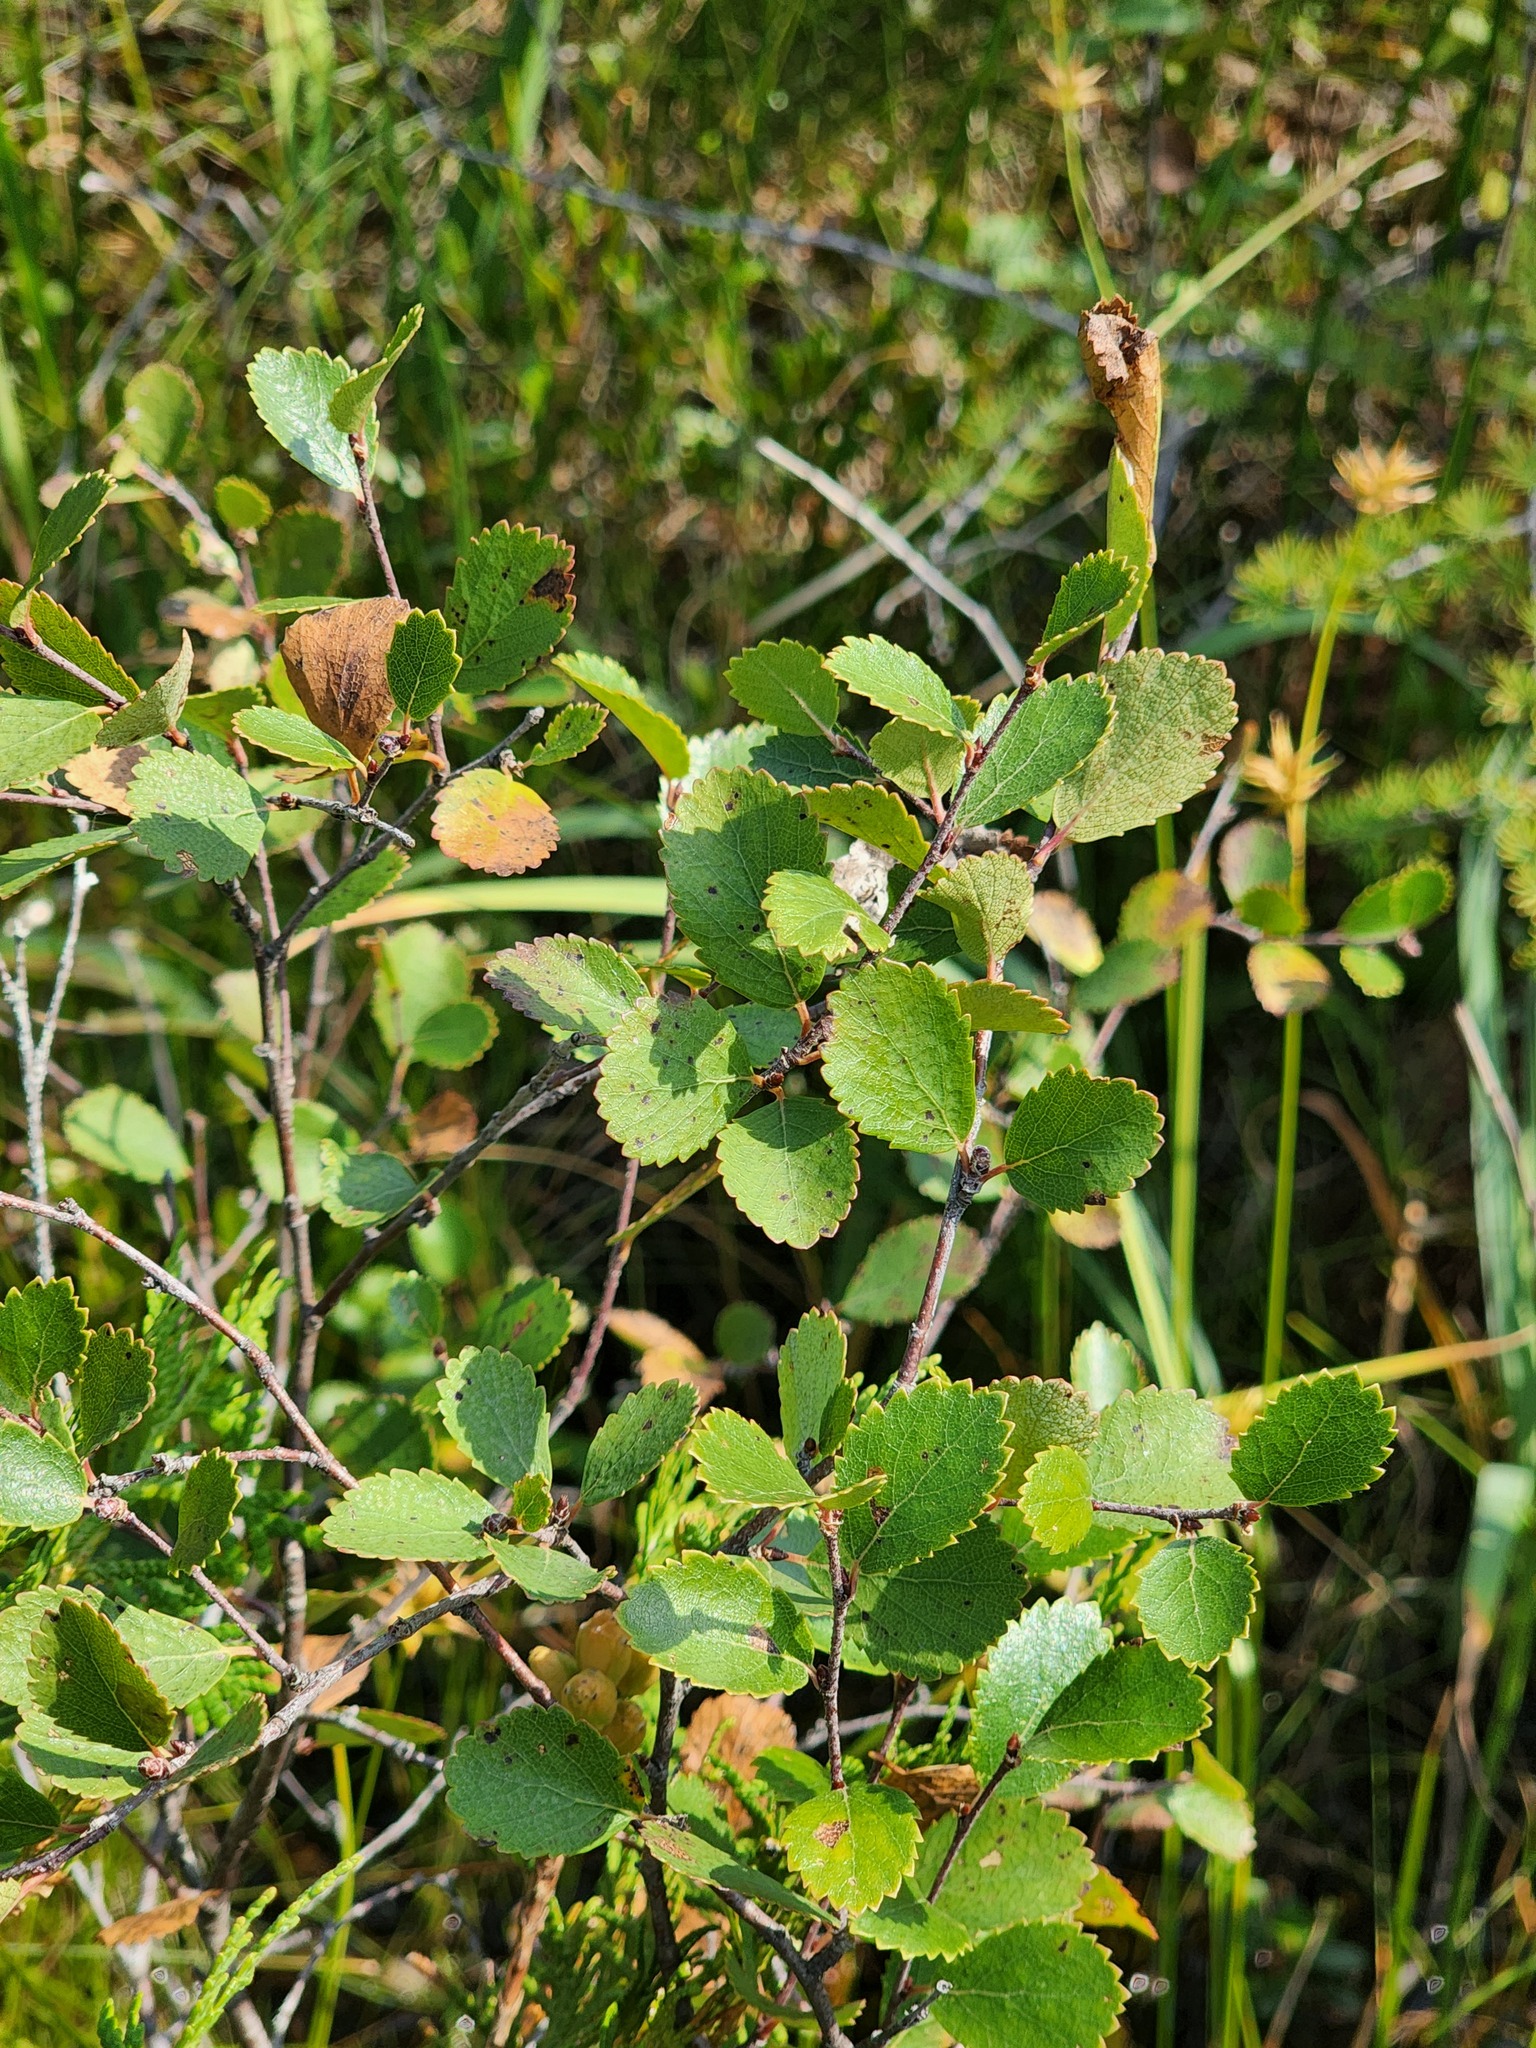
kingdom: Plantae
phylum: Tracheophyta
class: Magnoliopsida
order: Fagales
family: Betulaceae
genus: Betula
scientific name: Betula pumila
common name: Bog birch
